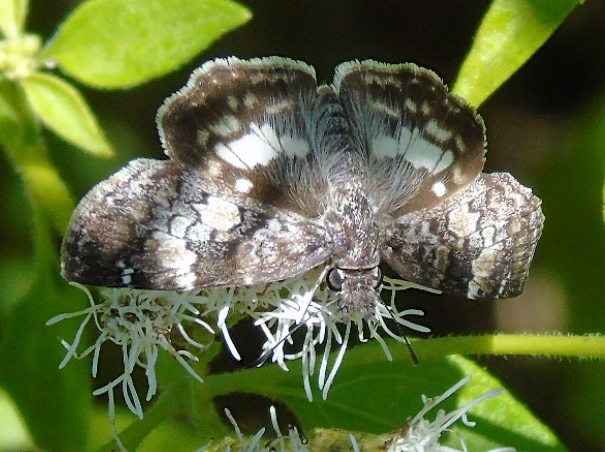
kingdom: Animalia
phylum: Arthropoda
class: Insecta
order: Lepidoptera
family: Hesperiidae
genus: Chiothion
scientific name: Chiothion georgina
